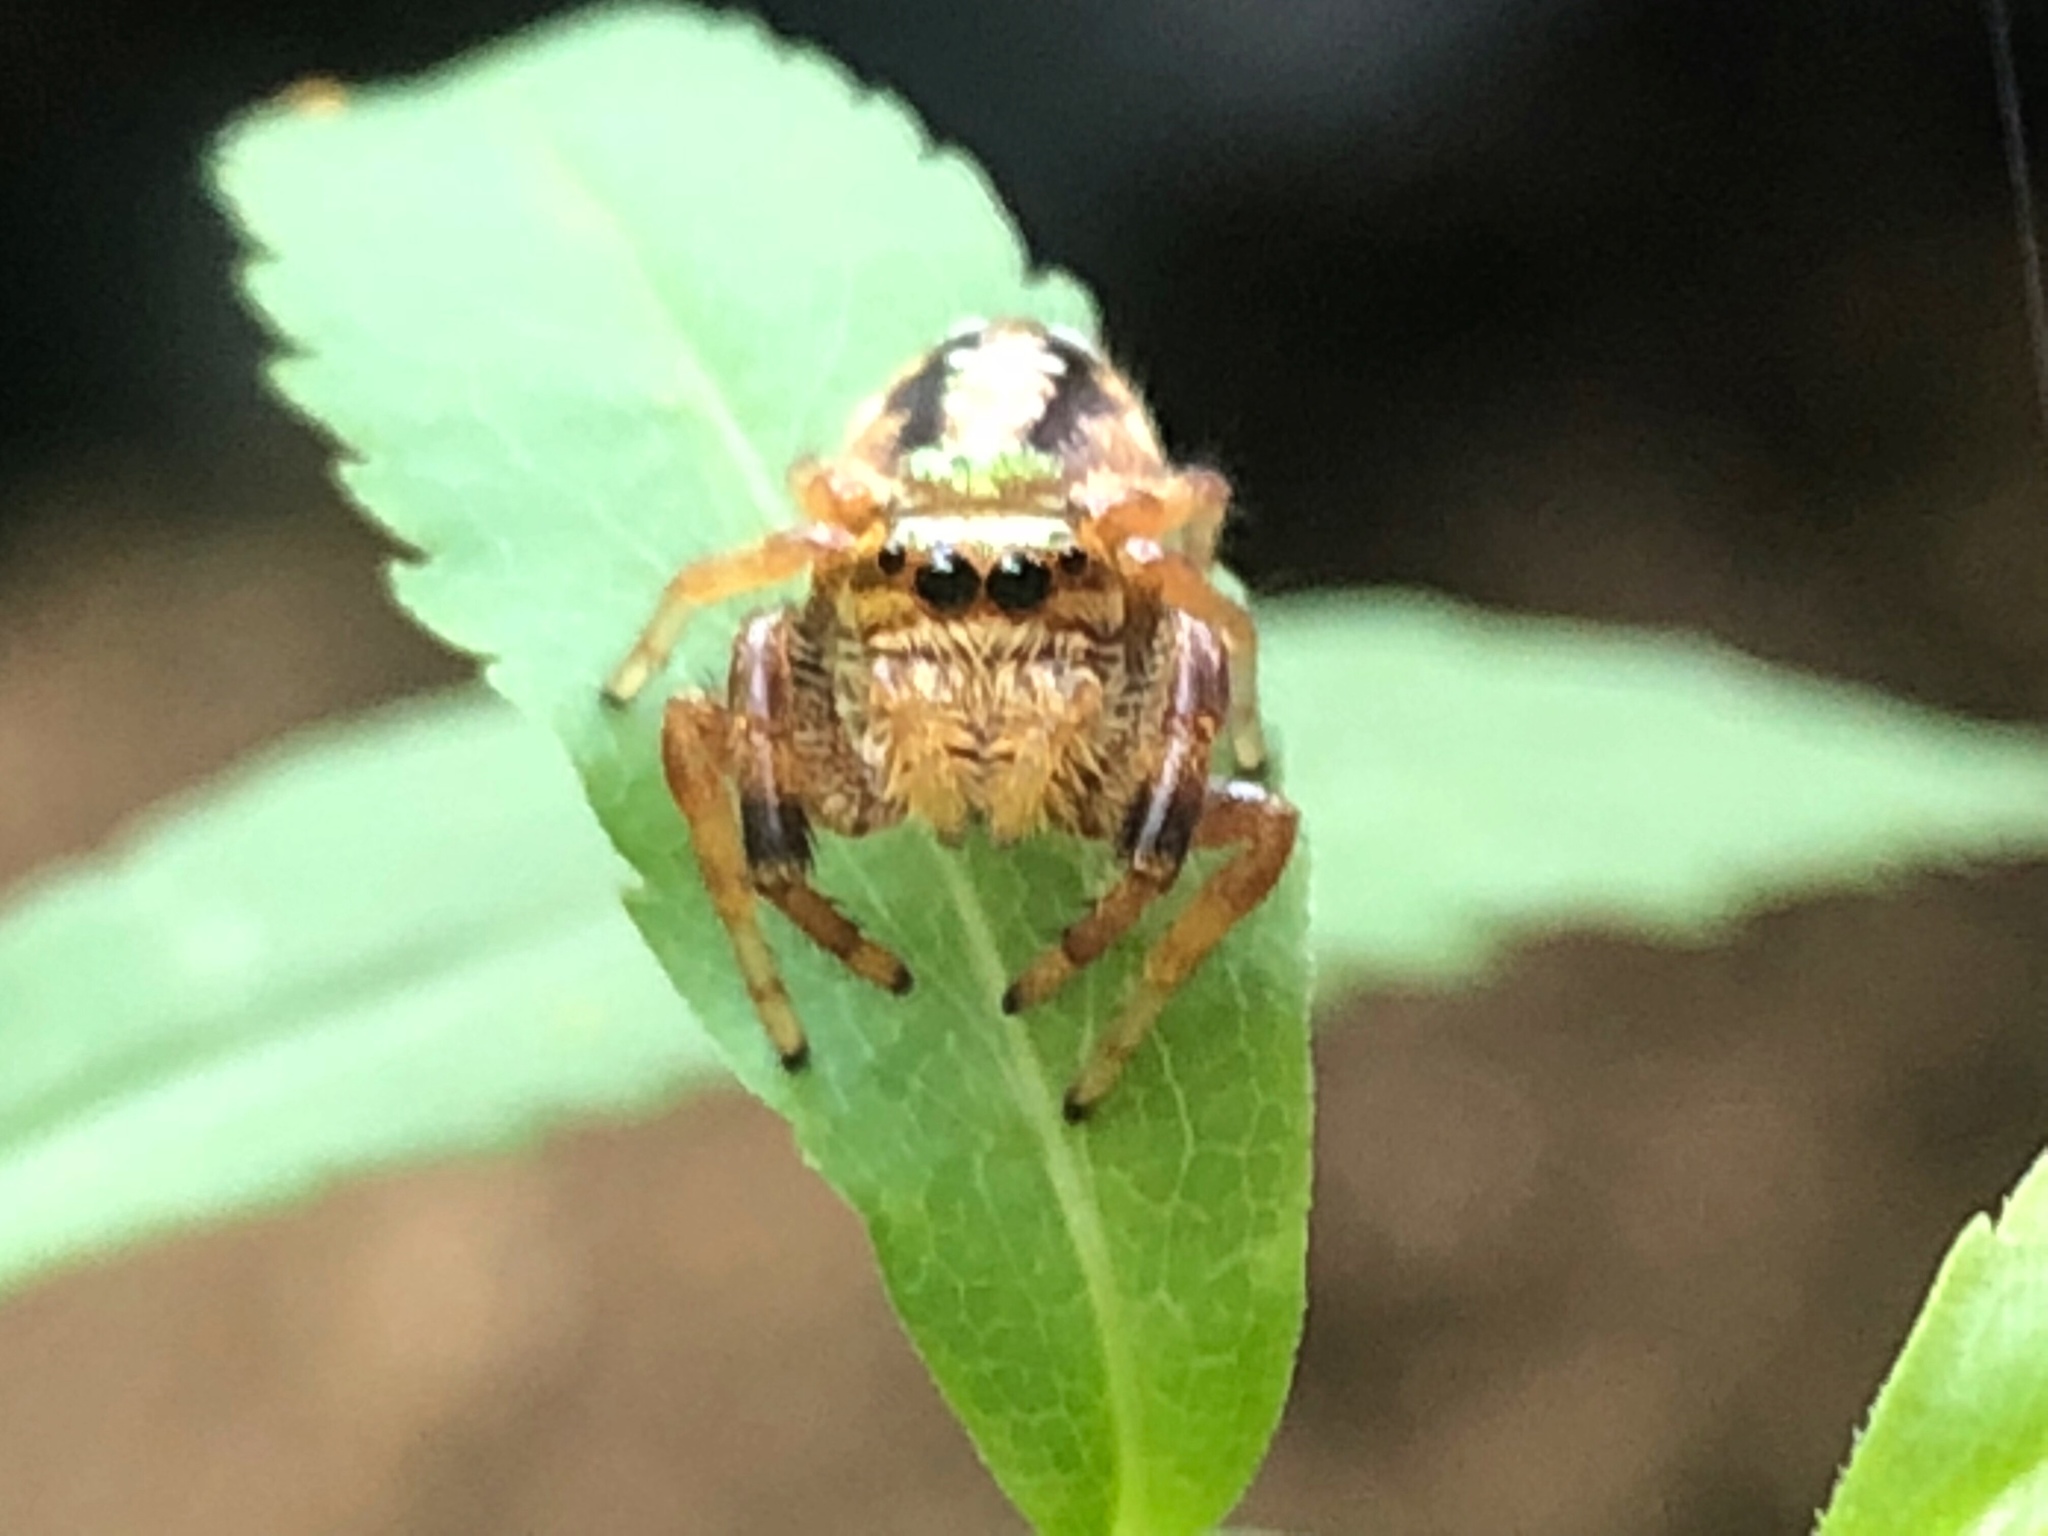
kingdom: Animalia
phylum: Arthropoda
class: Arachnida
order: Araneae
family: Salticidae
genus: Paraphidippus
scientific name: Paraphidippus aurantius
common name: Jumping spiders
